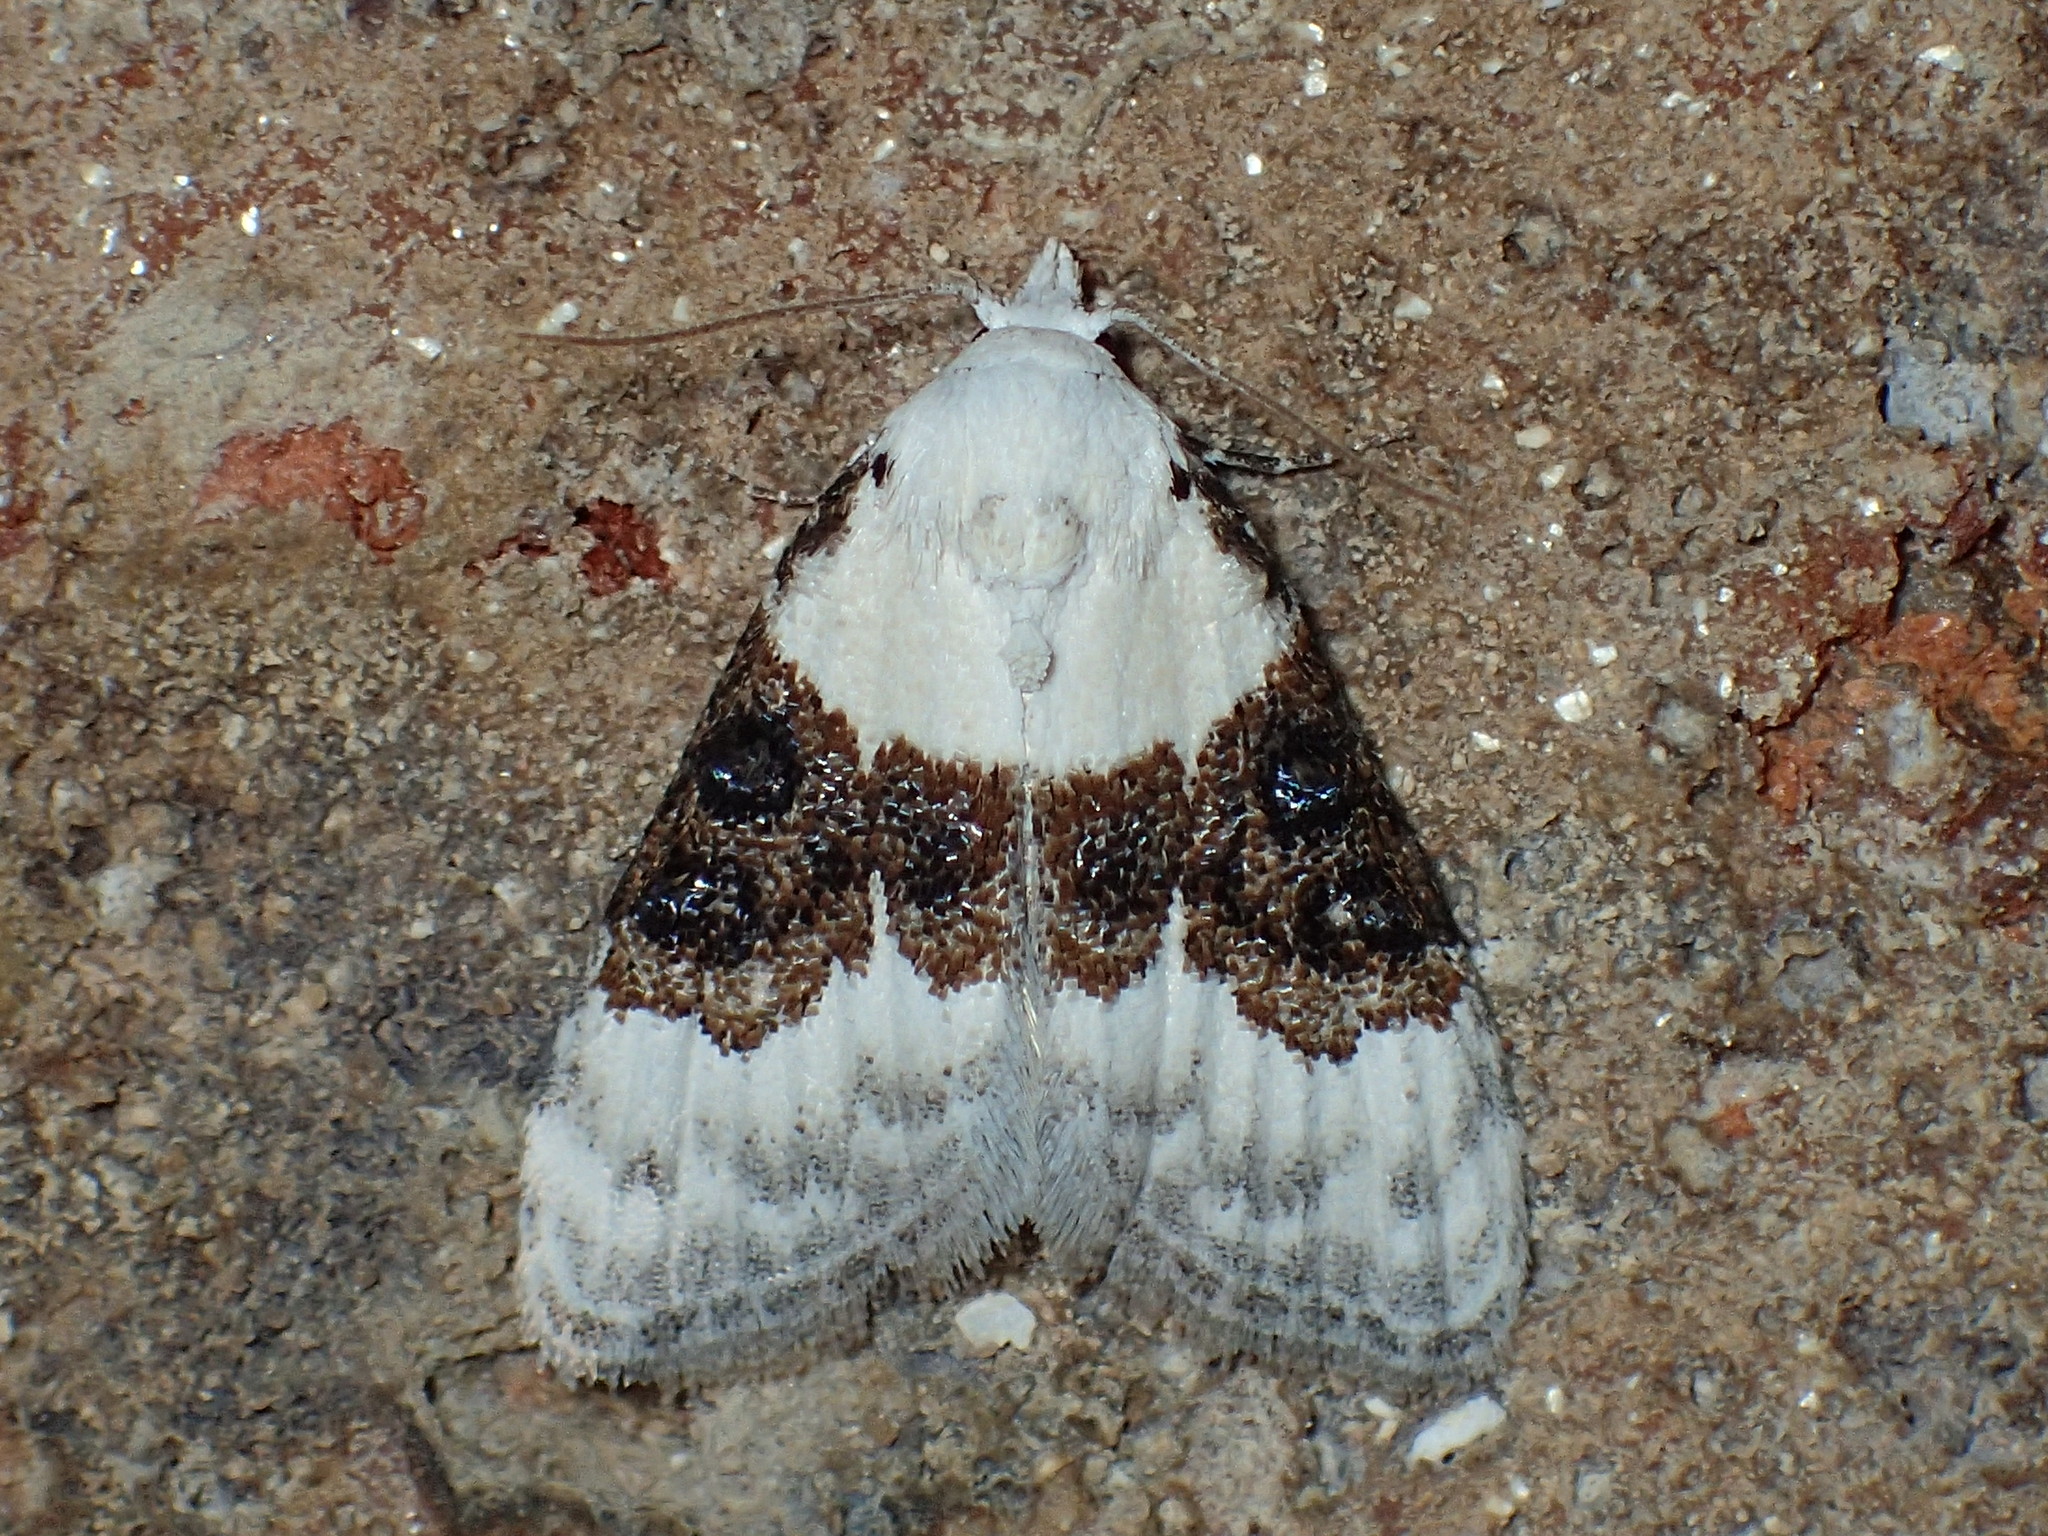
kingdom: Animalia
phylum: Arthropoda
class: Insecta
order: Lepidoptera
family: Nolidae
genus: Nola
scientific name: Nola pustulata
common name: Sharp-blotched nola moth
